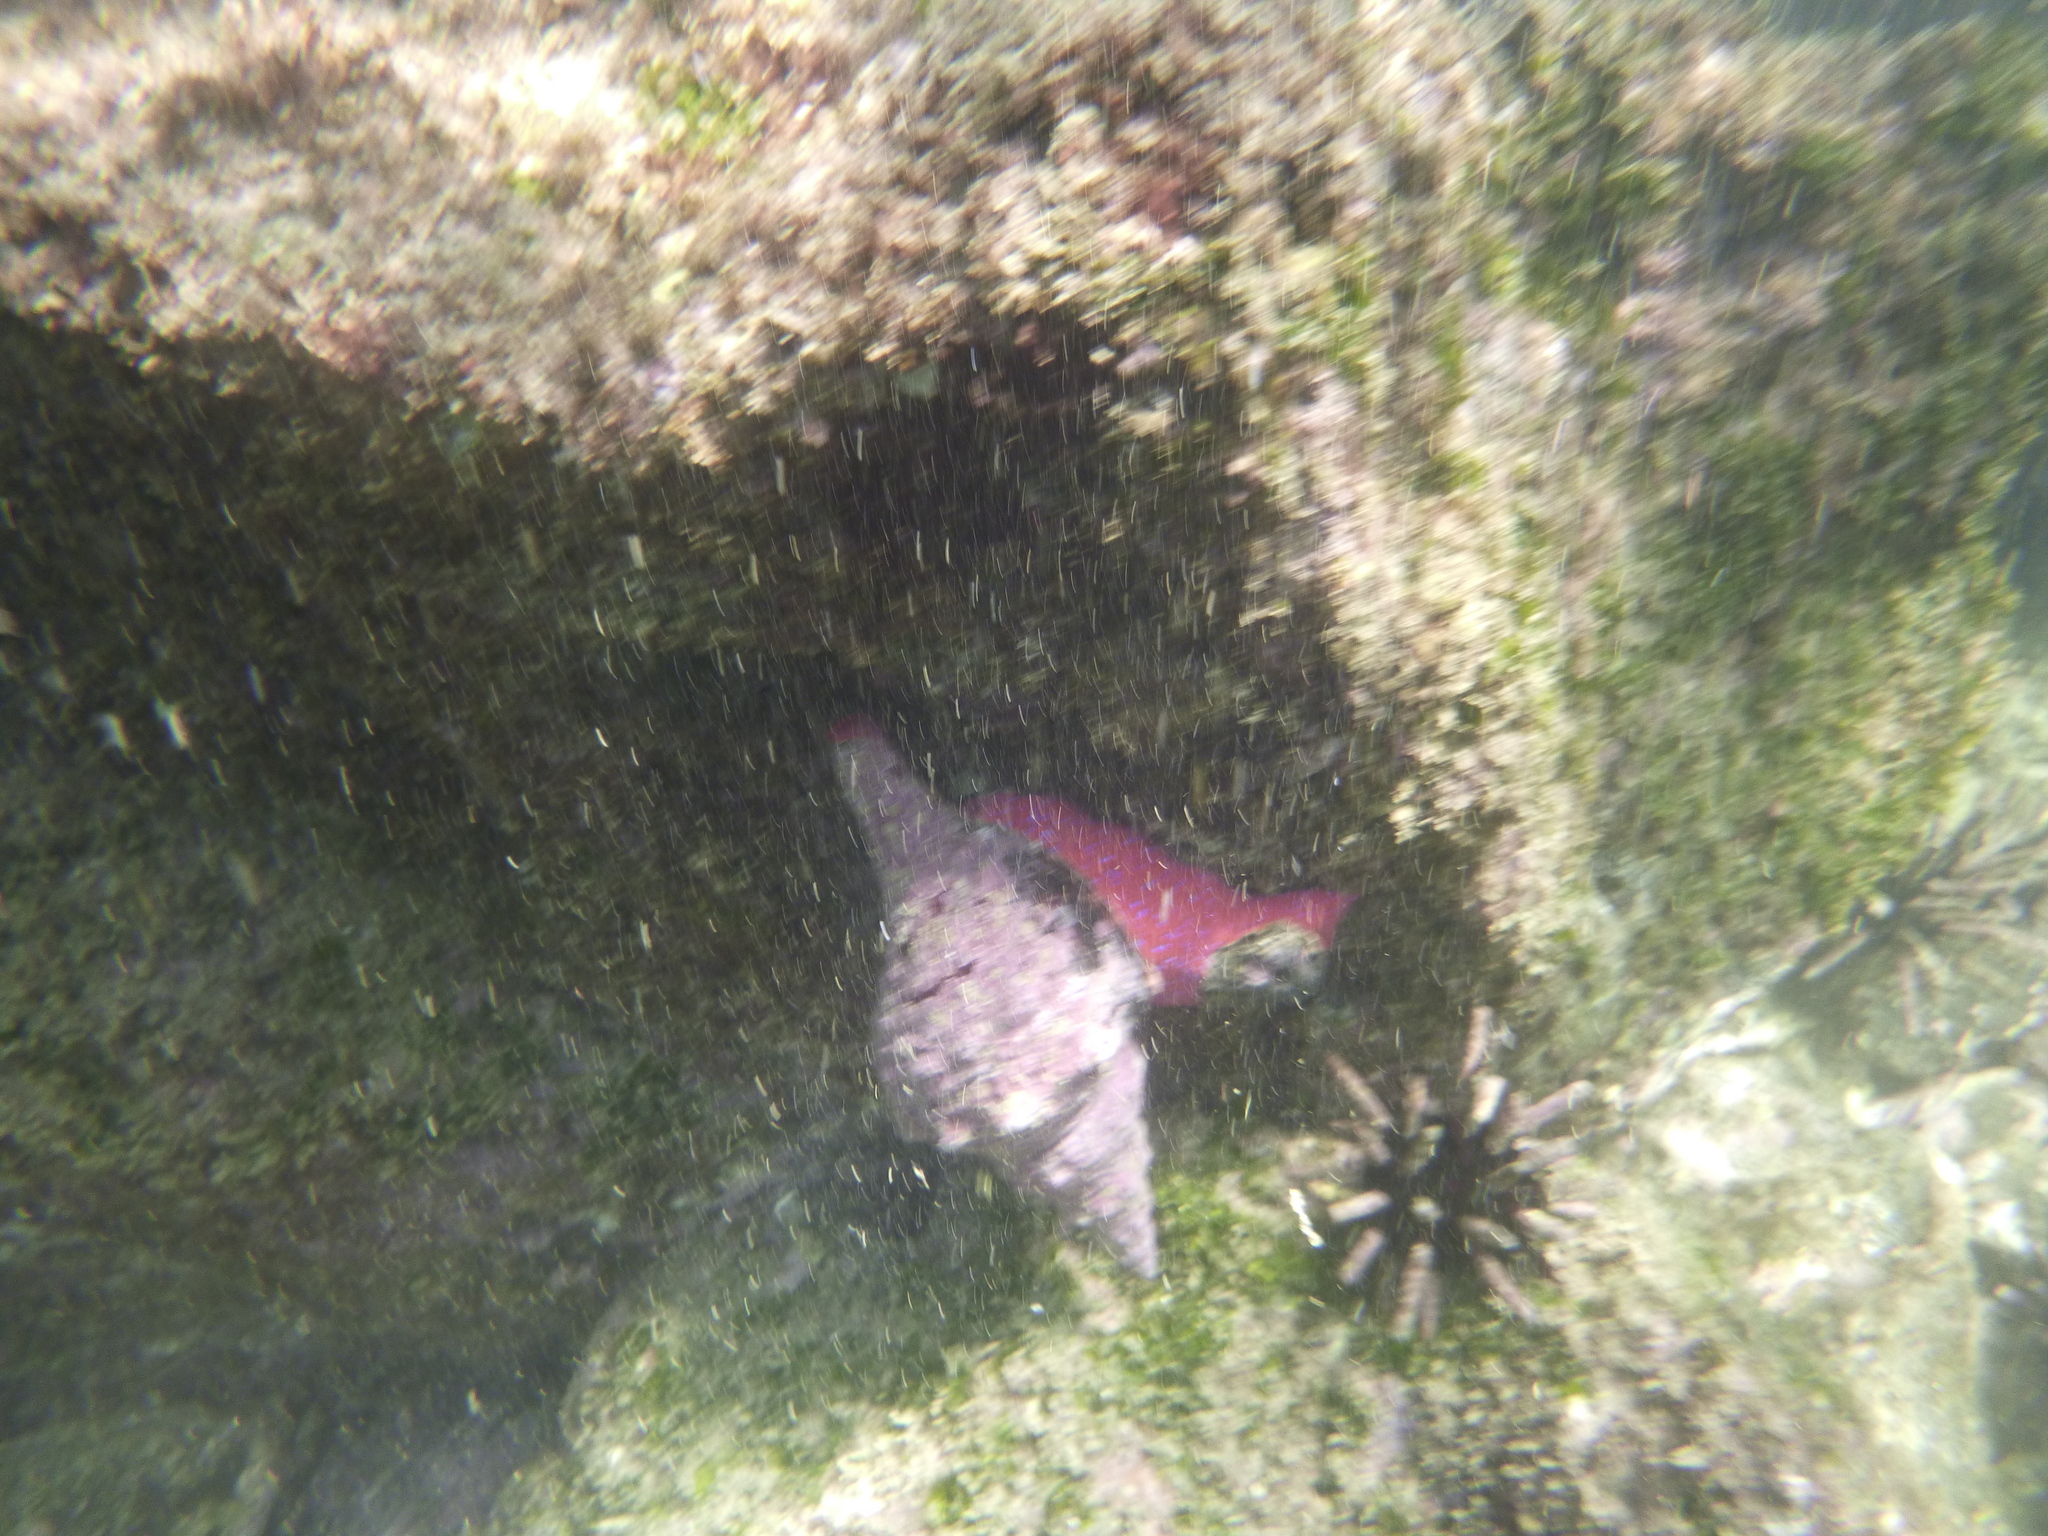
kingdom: Animalia
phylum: Mollusca
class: Gastropoda
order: Neogastropoda
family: Fasciolariidae
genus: Triplofusus
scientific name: Triplofusus princeps
